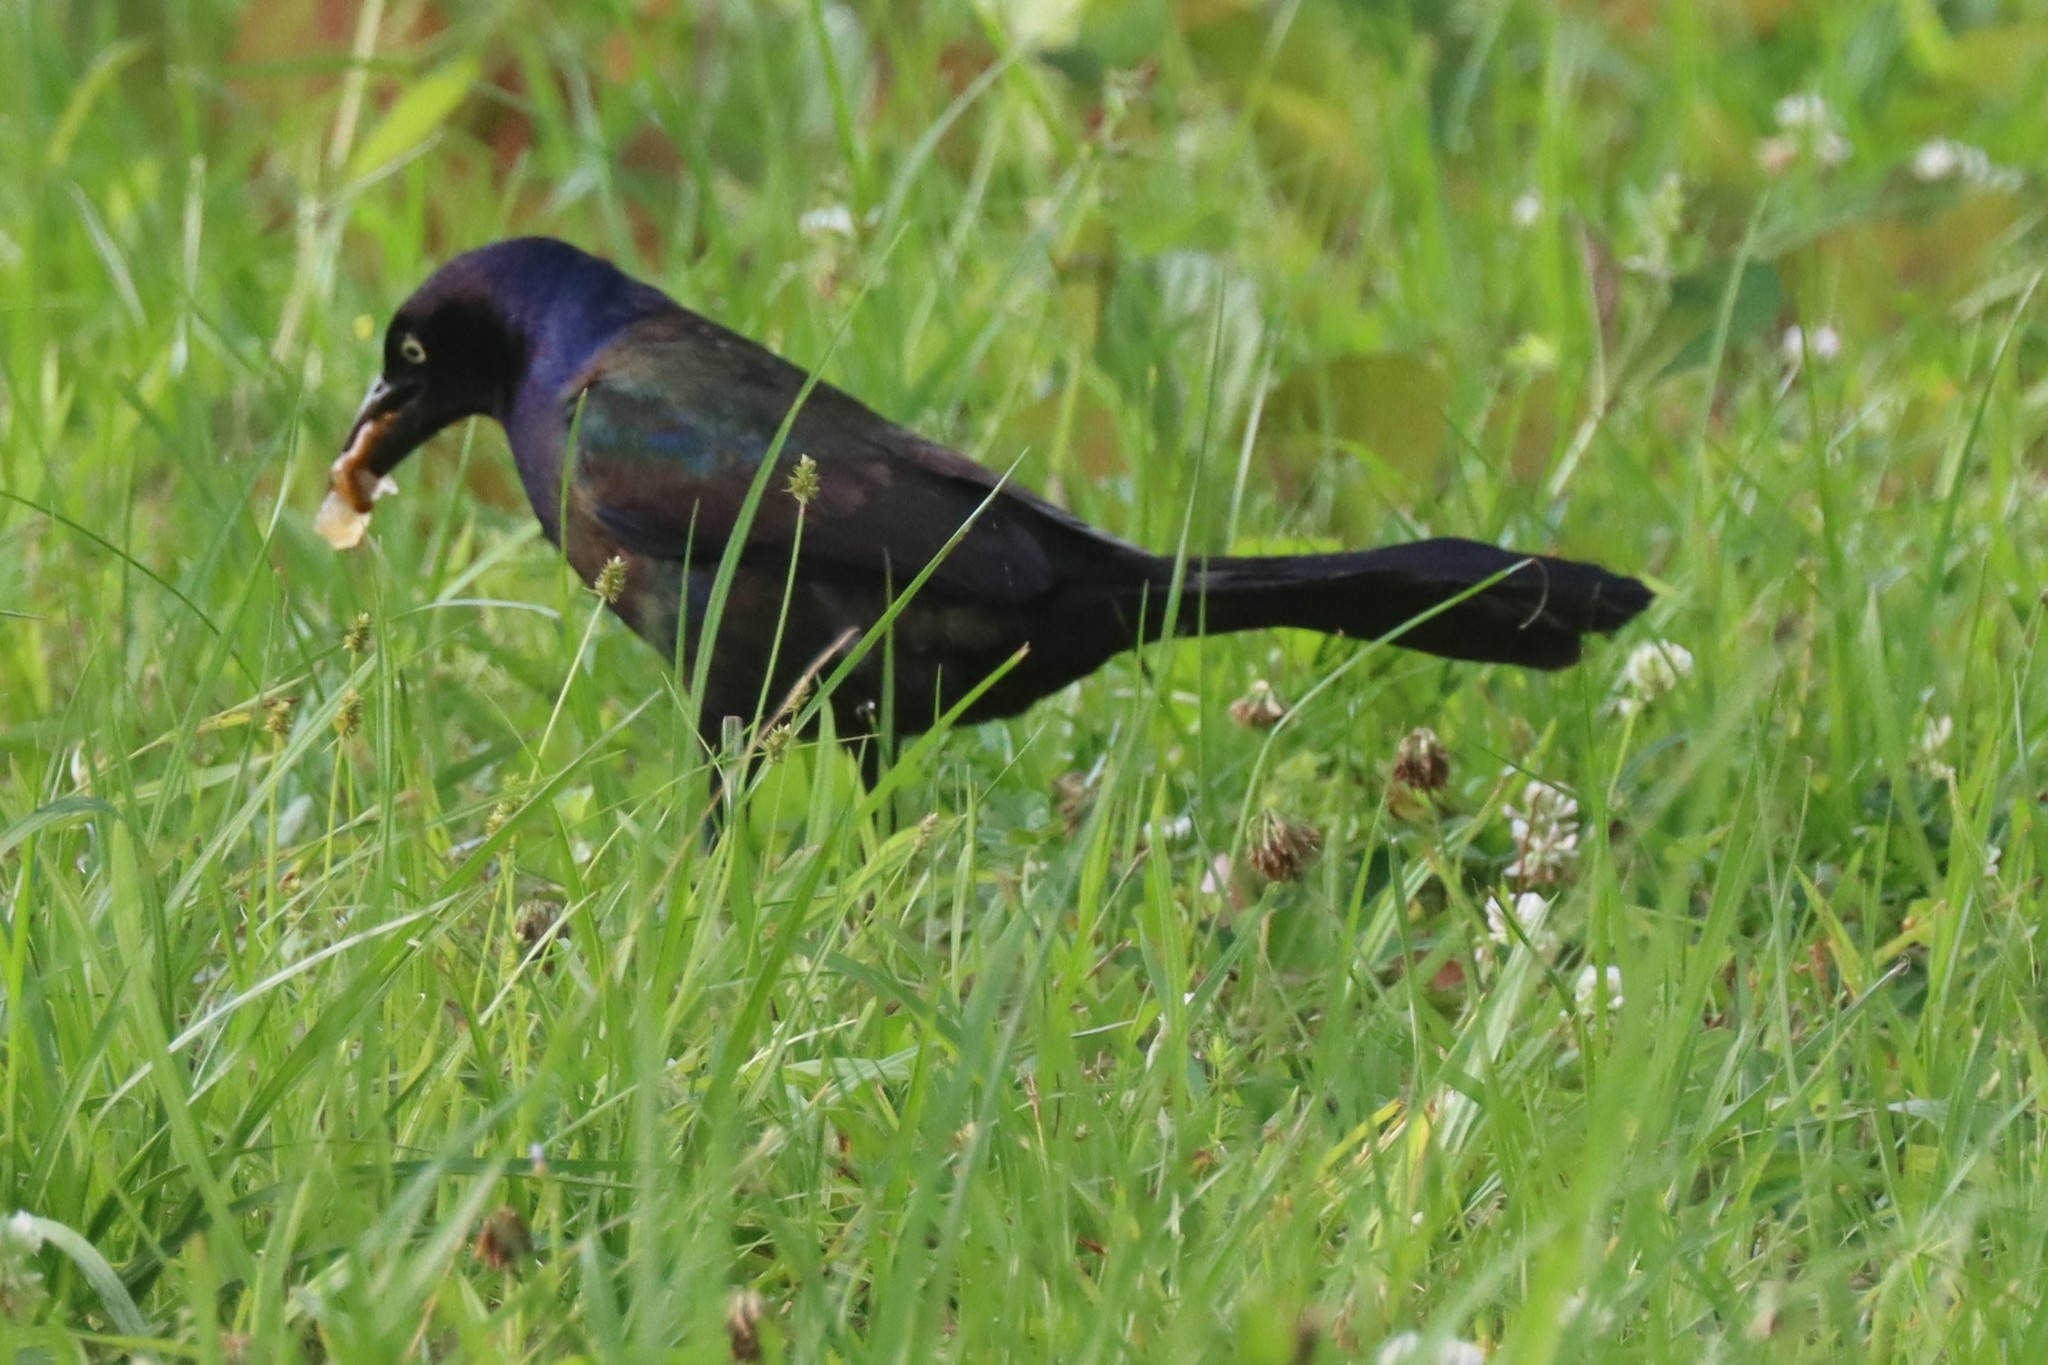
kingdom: Animalia
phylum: Chordata
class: Aves
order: Passeriformes
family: Icteridae
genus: Quiscalus
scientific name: Quiscalus quiscula
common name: Common grackle
